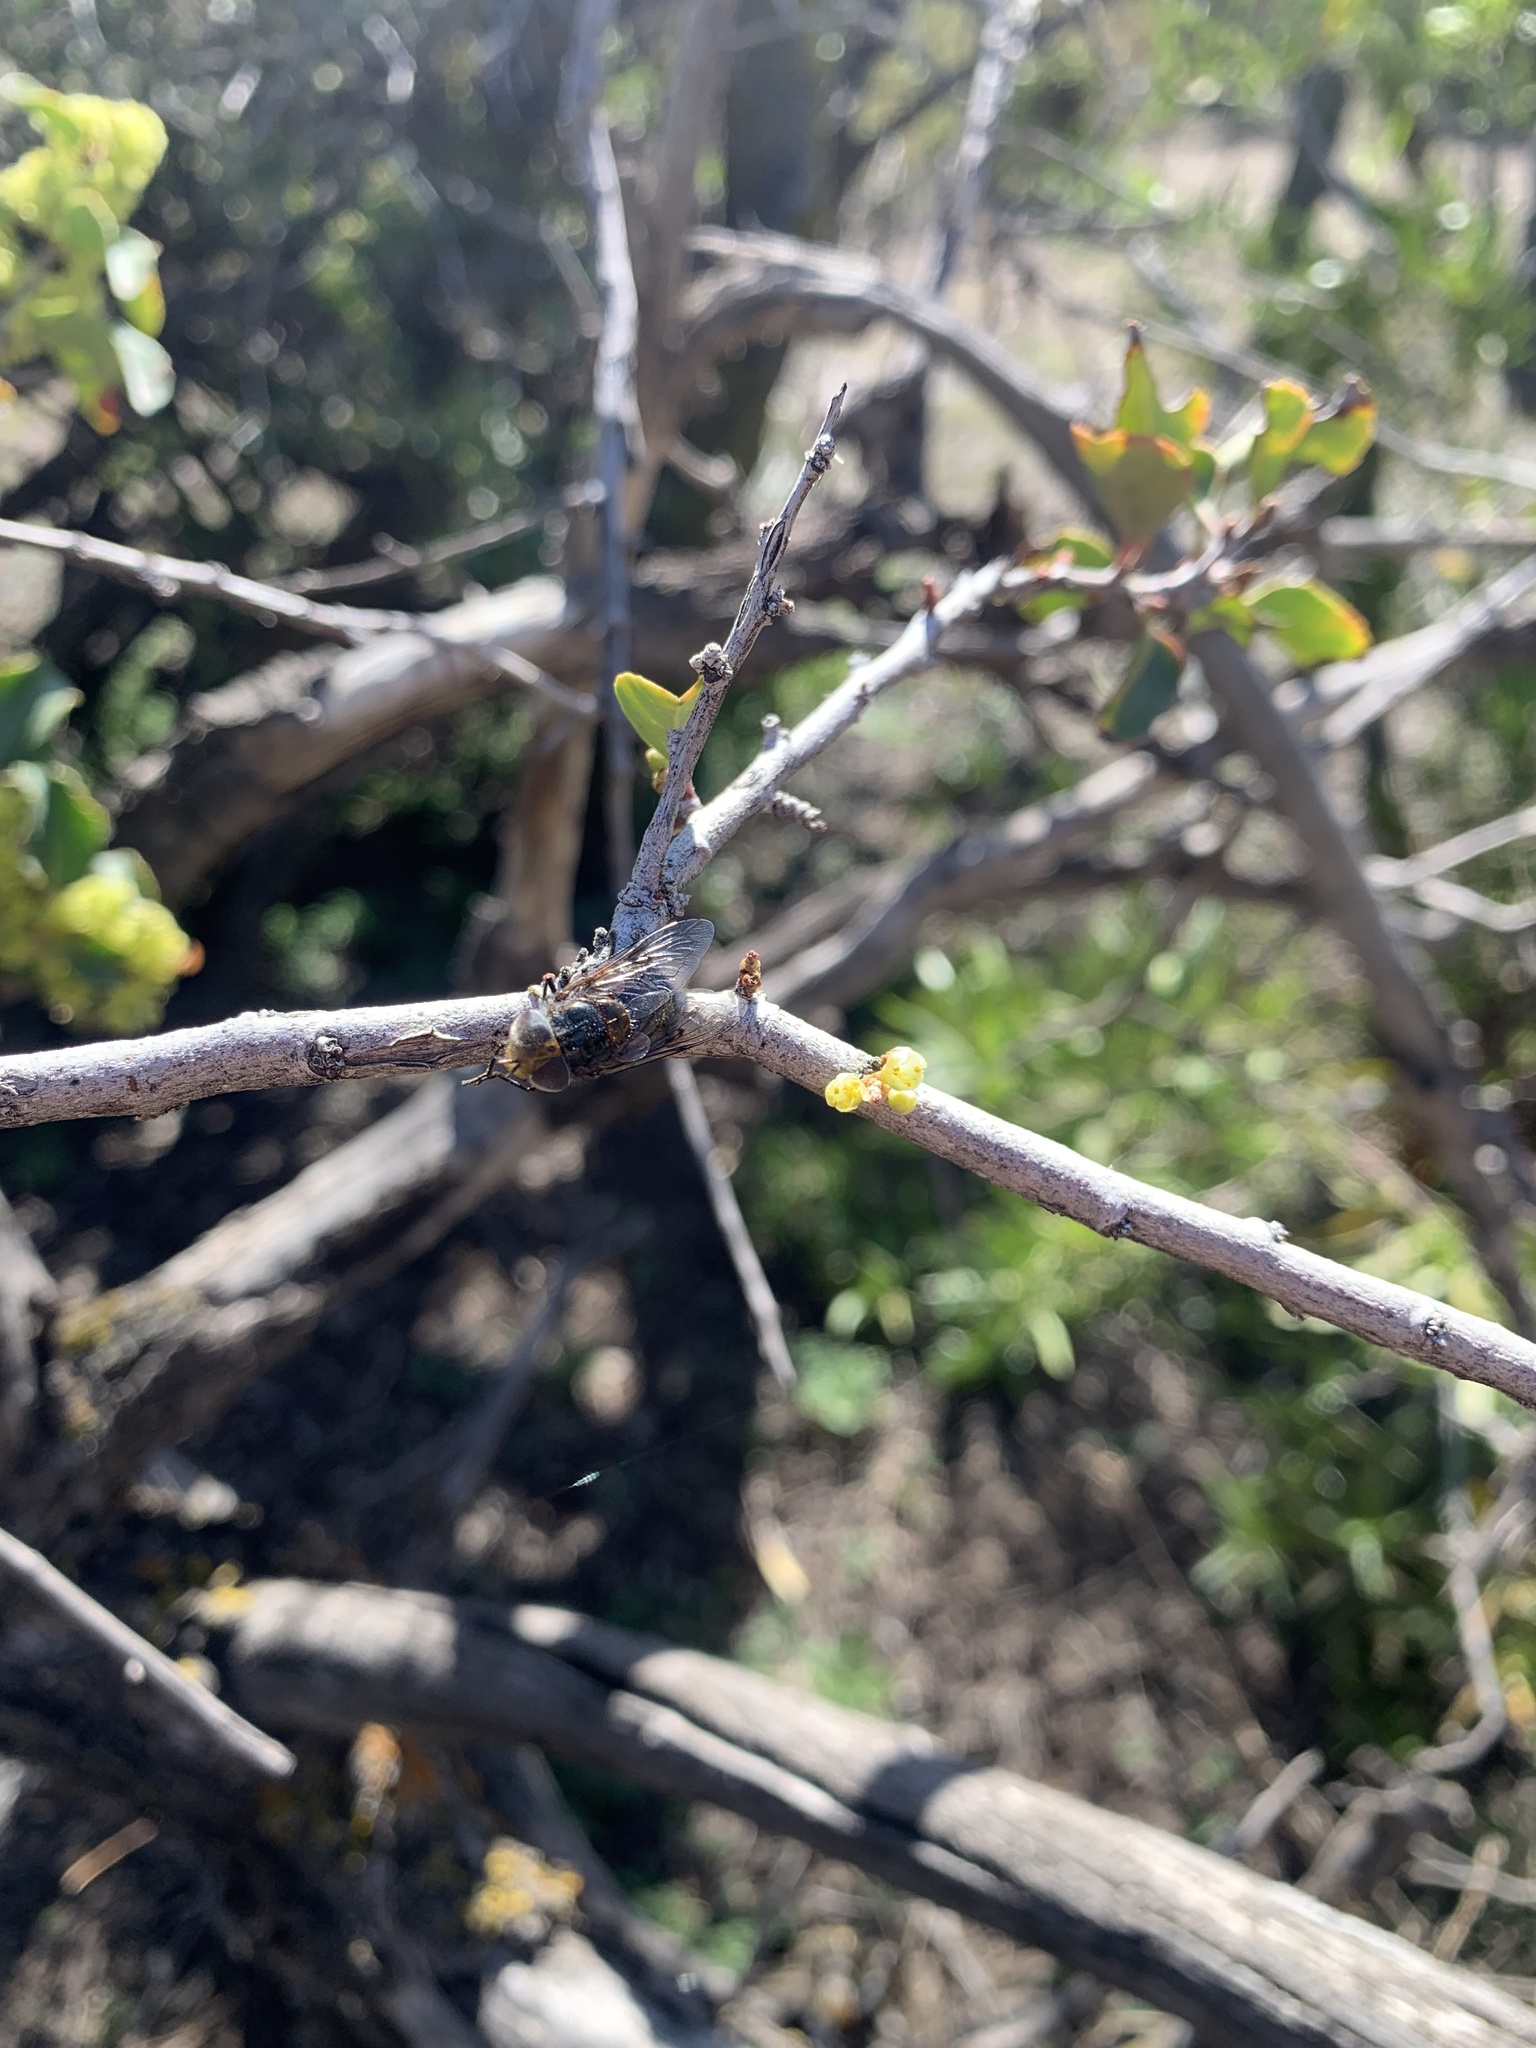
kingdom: Animalia
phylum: Arthropoda
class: Insecta
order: Diptera
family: Syrphidae
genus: Copestylum
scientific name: Copestylum scutellatum
